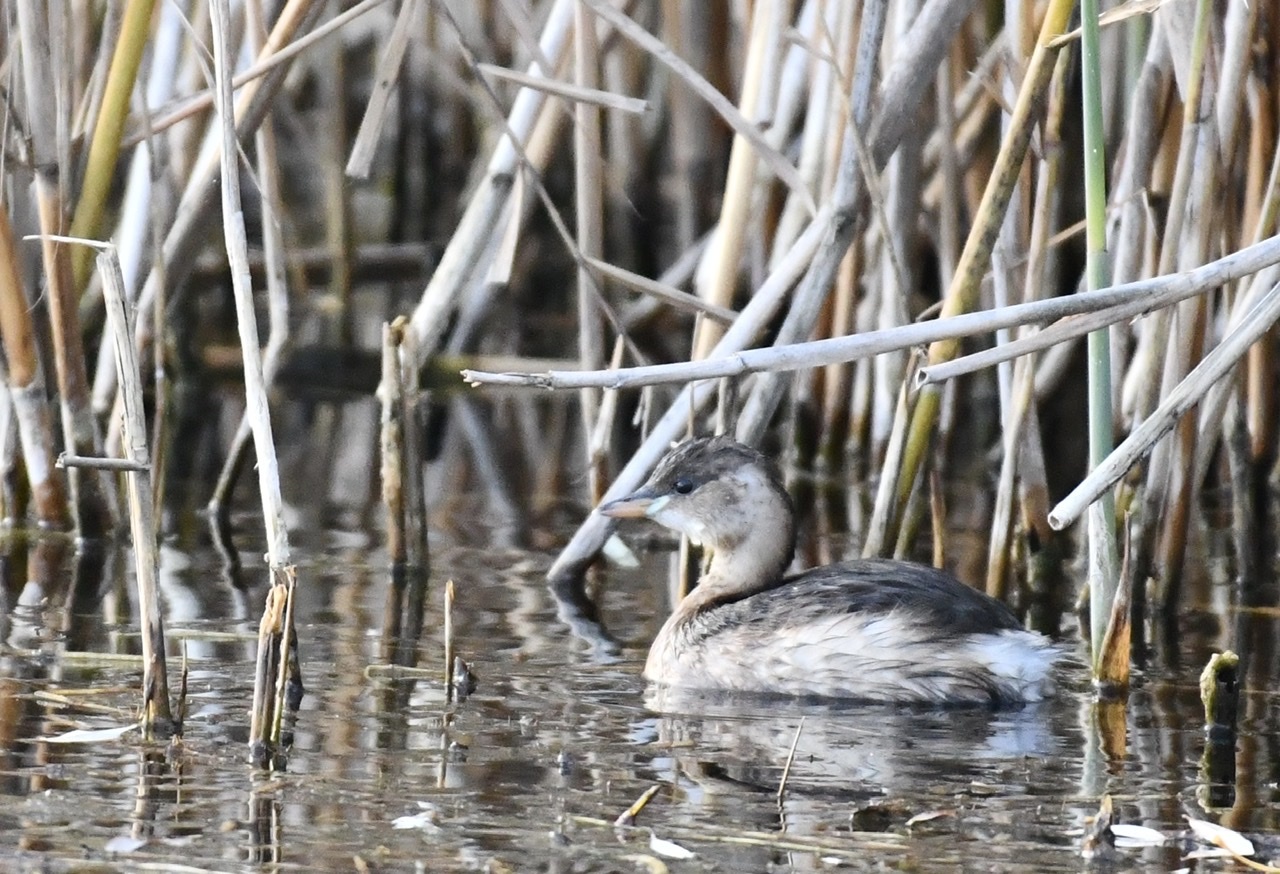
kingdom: Animalia
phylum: Chordata
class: Aves
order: Podicipediformes
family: Podicipedidae
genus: Tachybaptus
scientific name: Tachybaptus ruficollis
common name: Little grebe
